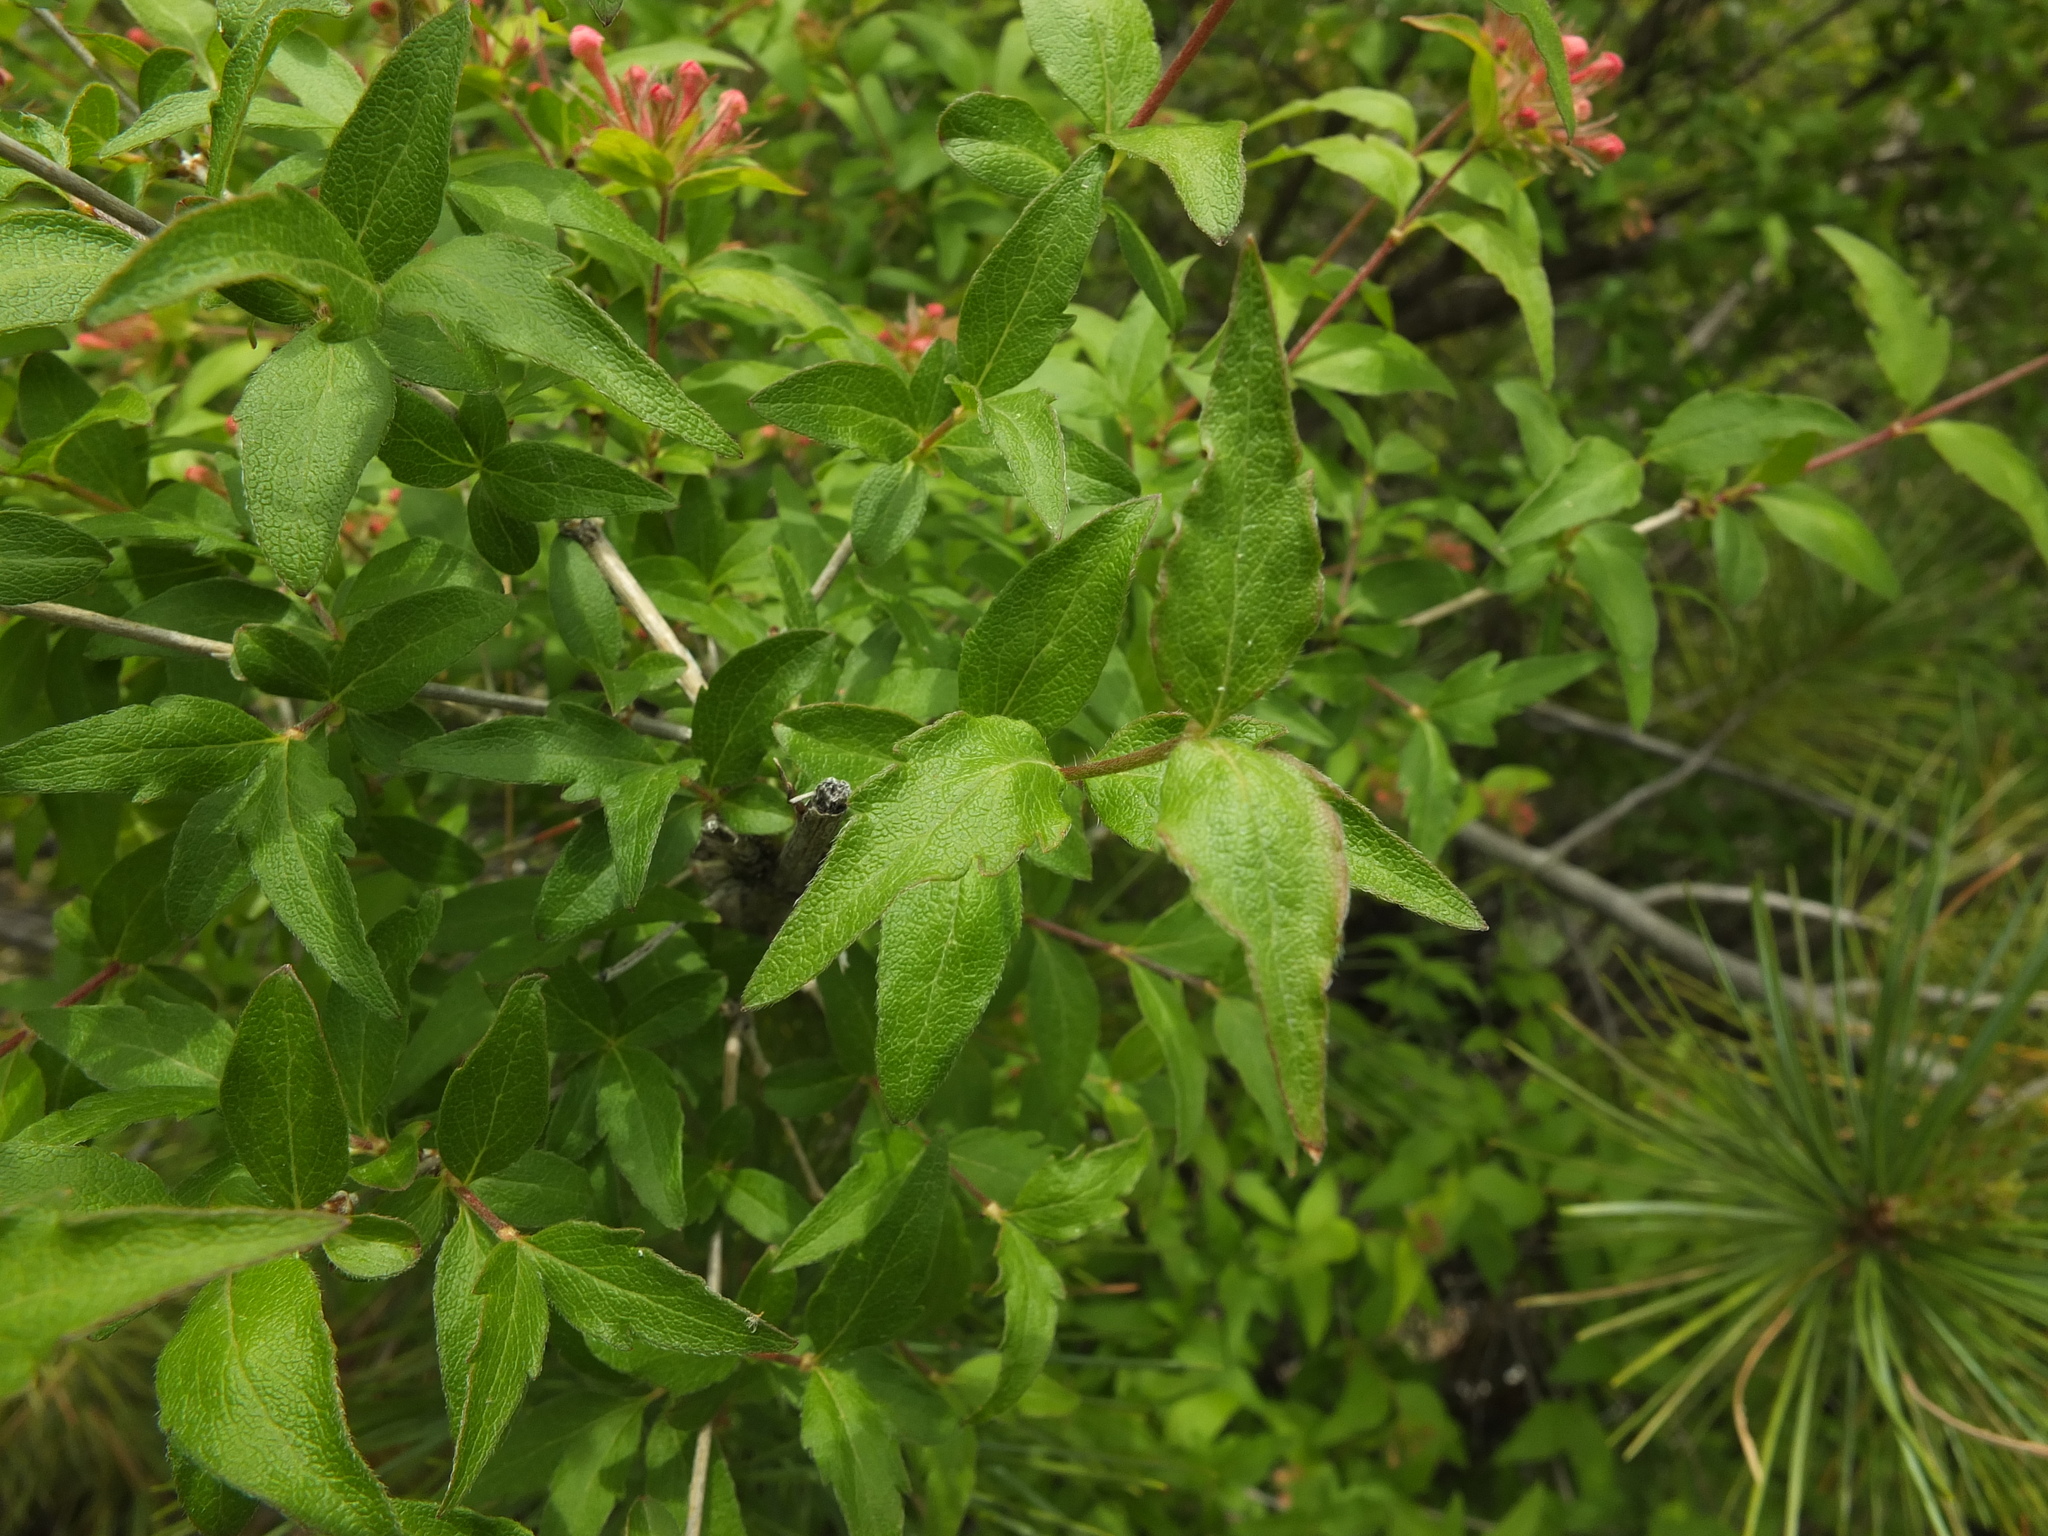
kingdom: Plantae
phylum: Tracheophyta
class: Magnoliopsida
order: Dipsacales
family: Caprifoliaceae
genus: Zabelia
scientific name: Zabelia triflora
